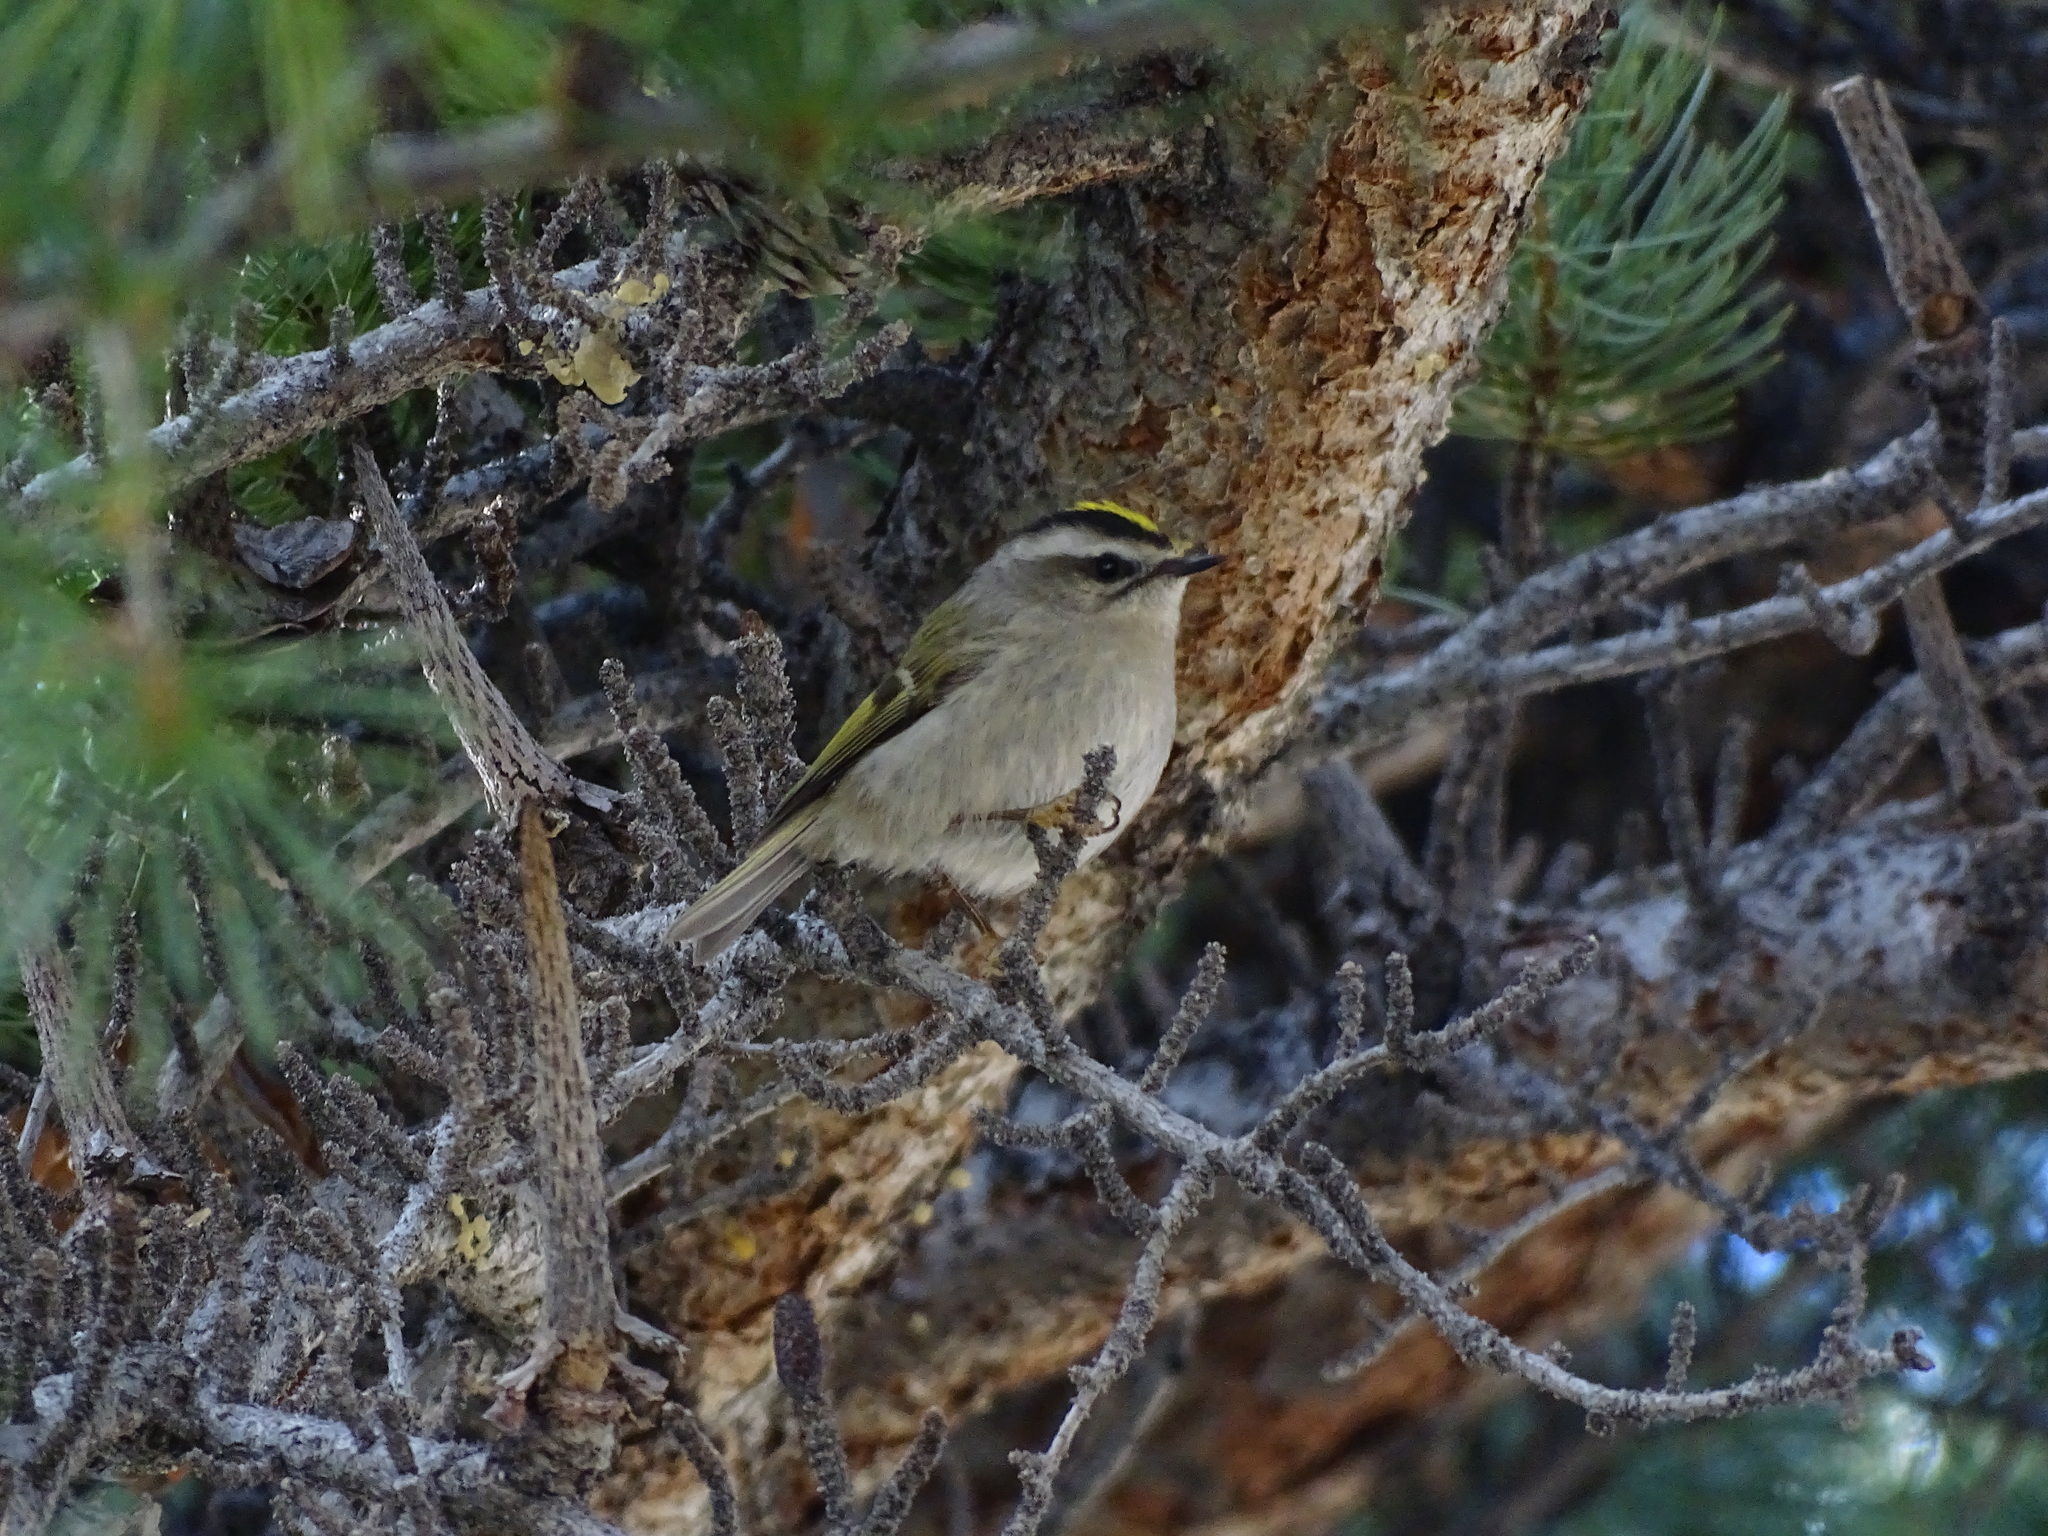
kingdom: Animalia
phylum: Chordata
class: Aves
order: Passeriformes
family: Regulidae
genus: Regulus
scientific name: Regulus satrapa
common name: Golden-crowned kinglet
